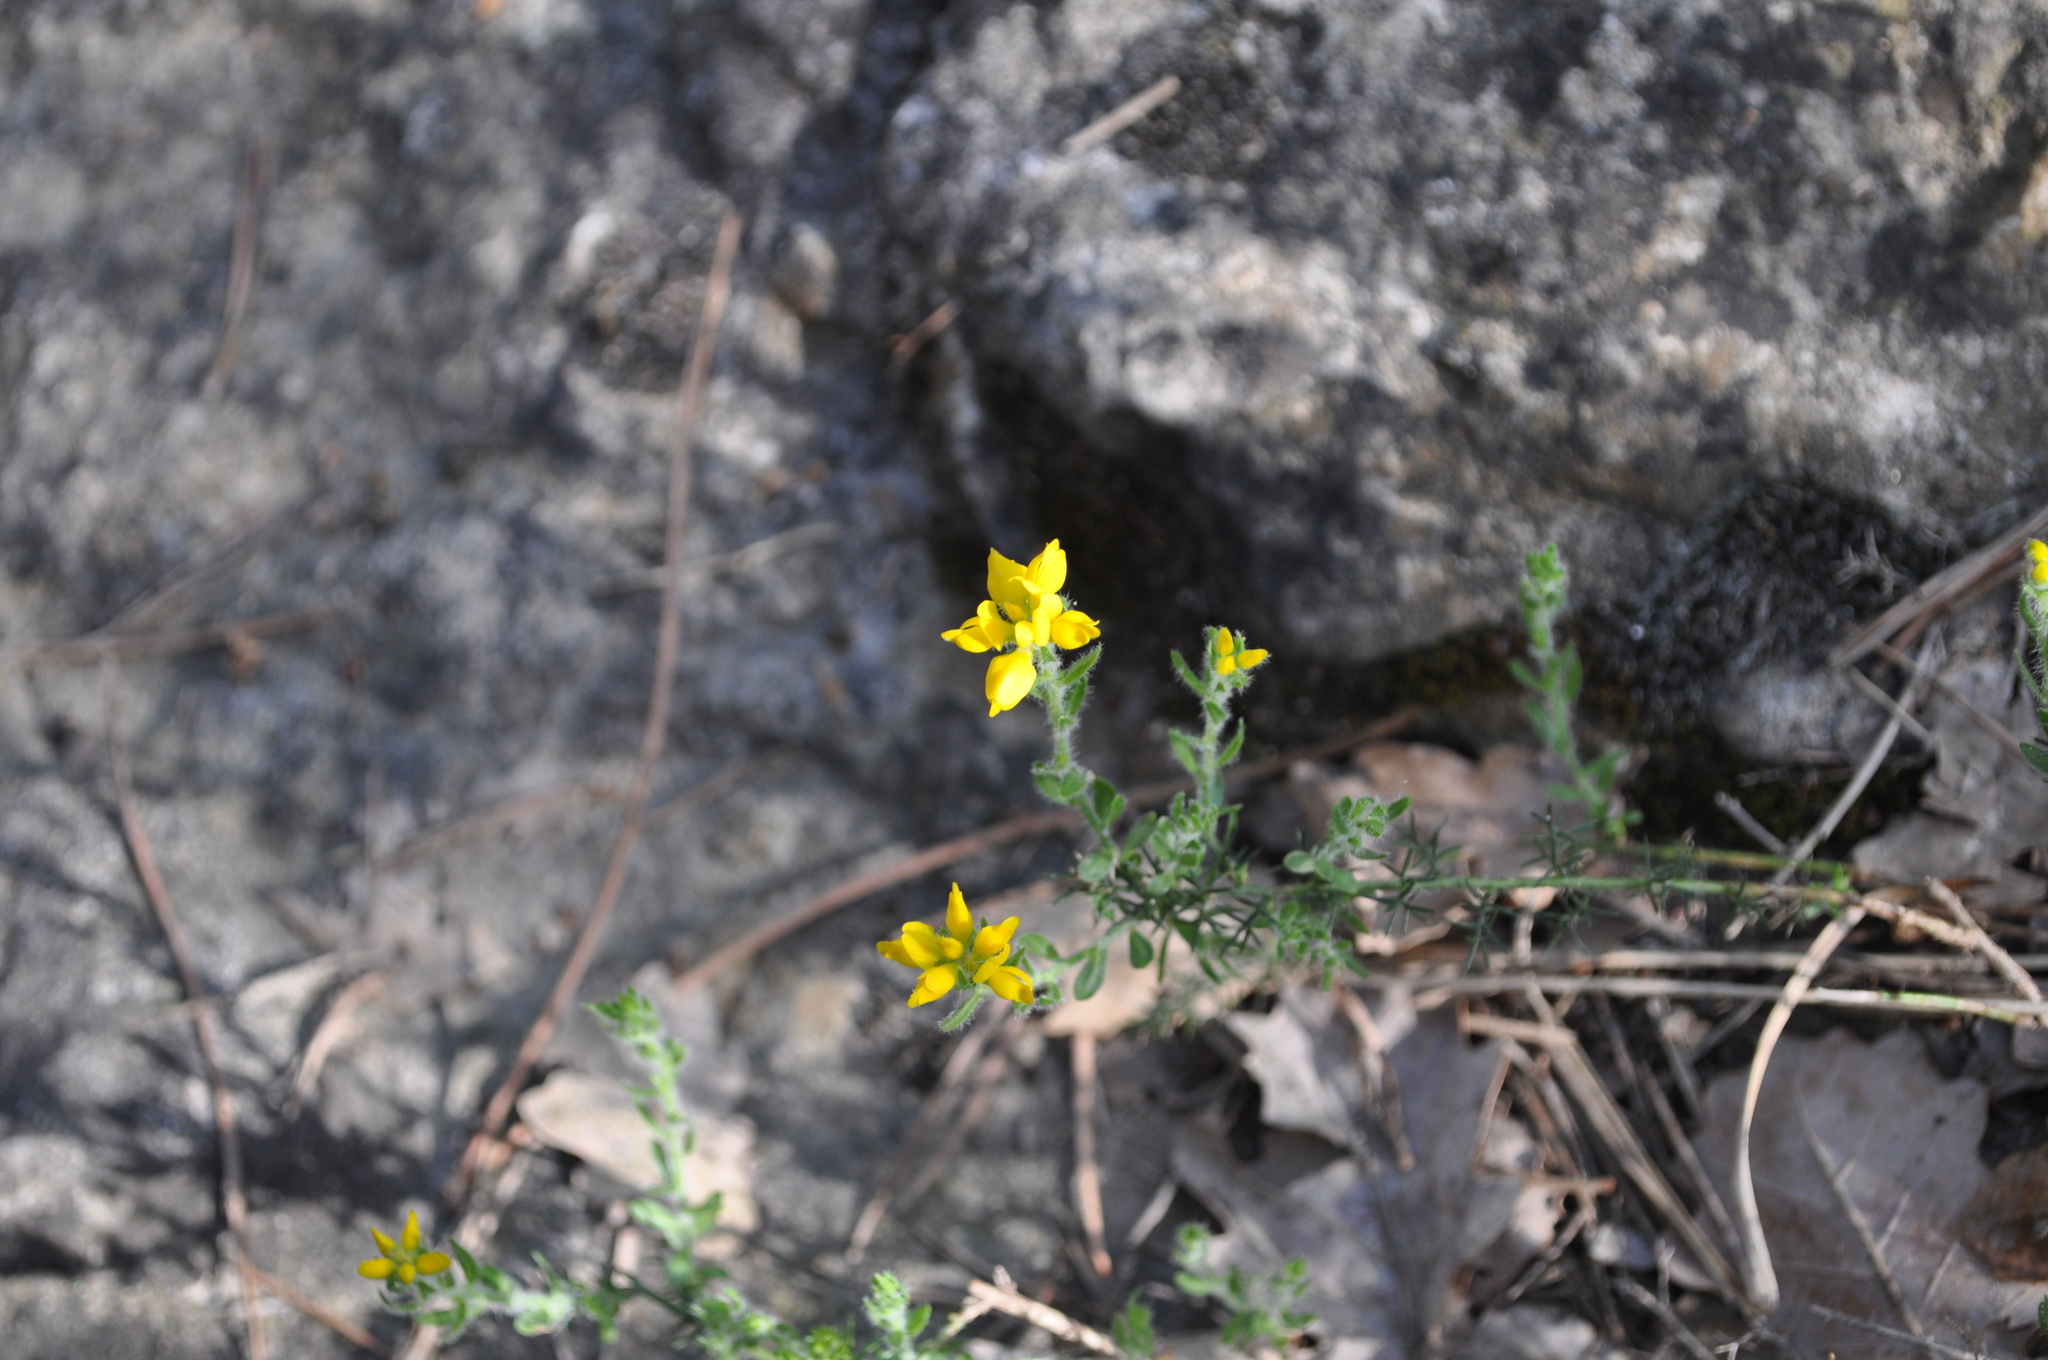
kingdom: Plantae
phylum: Tracheophyta
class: Magnoliopsida
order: Fabales
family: Fabaceae
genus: Genista
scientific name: Genista hispanica
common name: Spanish gorse
